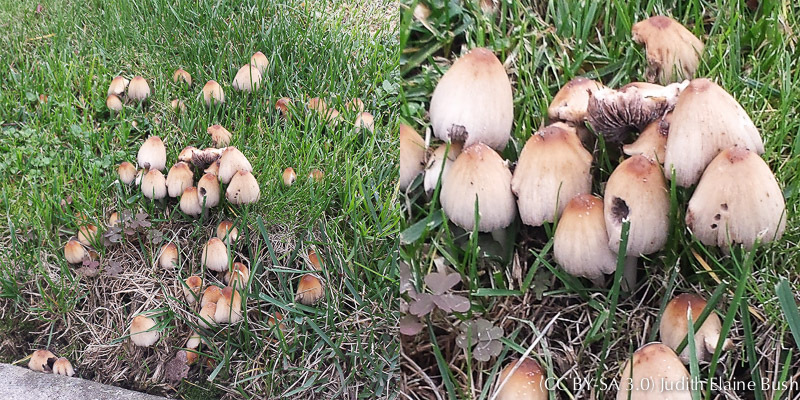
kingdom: Fungi
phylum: Basidiomycota
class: Agaricomycetes
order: Agaricales
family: Psathyrellaceae
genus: Coprinellus
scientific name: Coprinellus micaceus
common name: Glistening ink-cap
